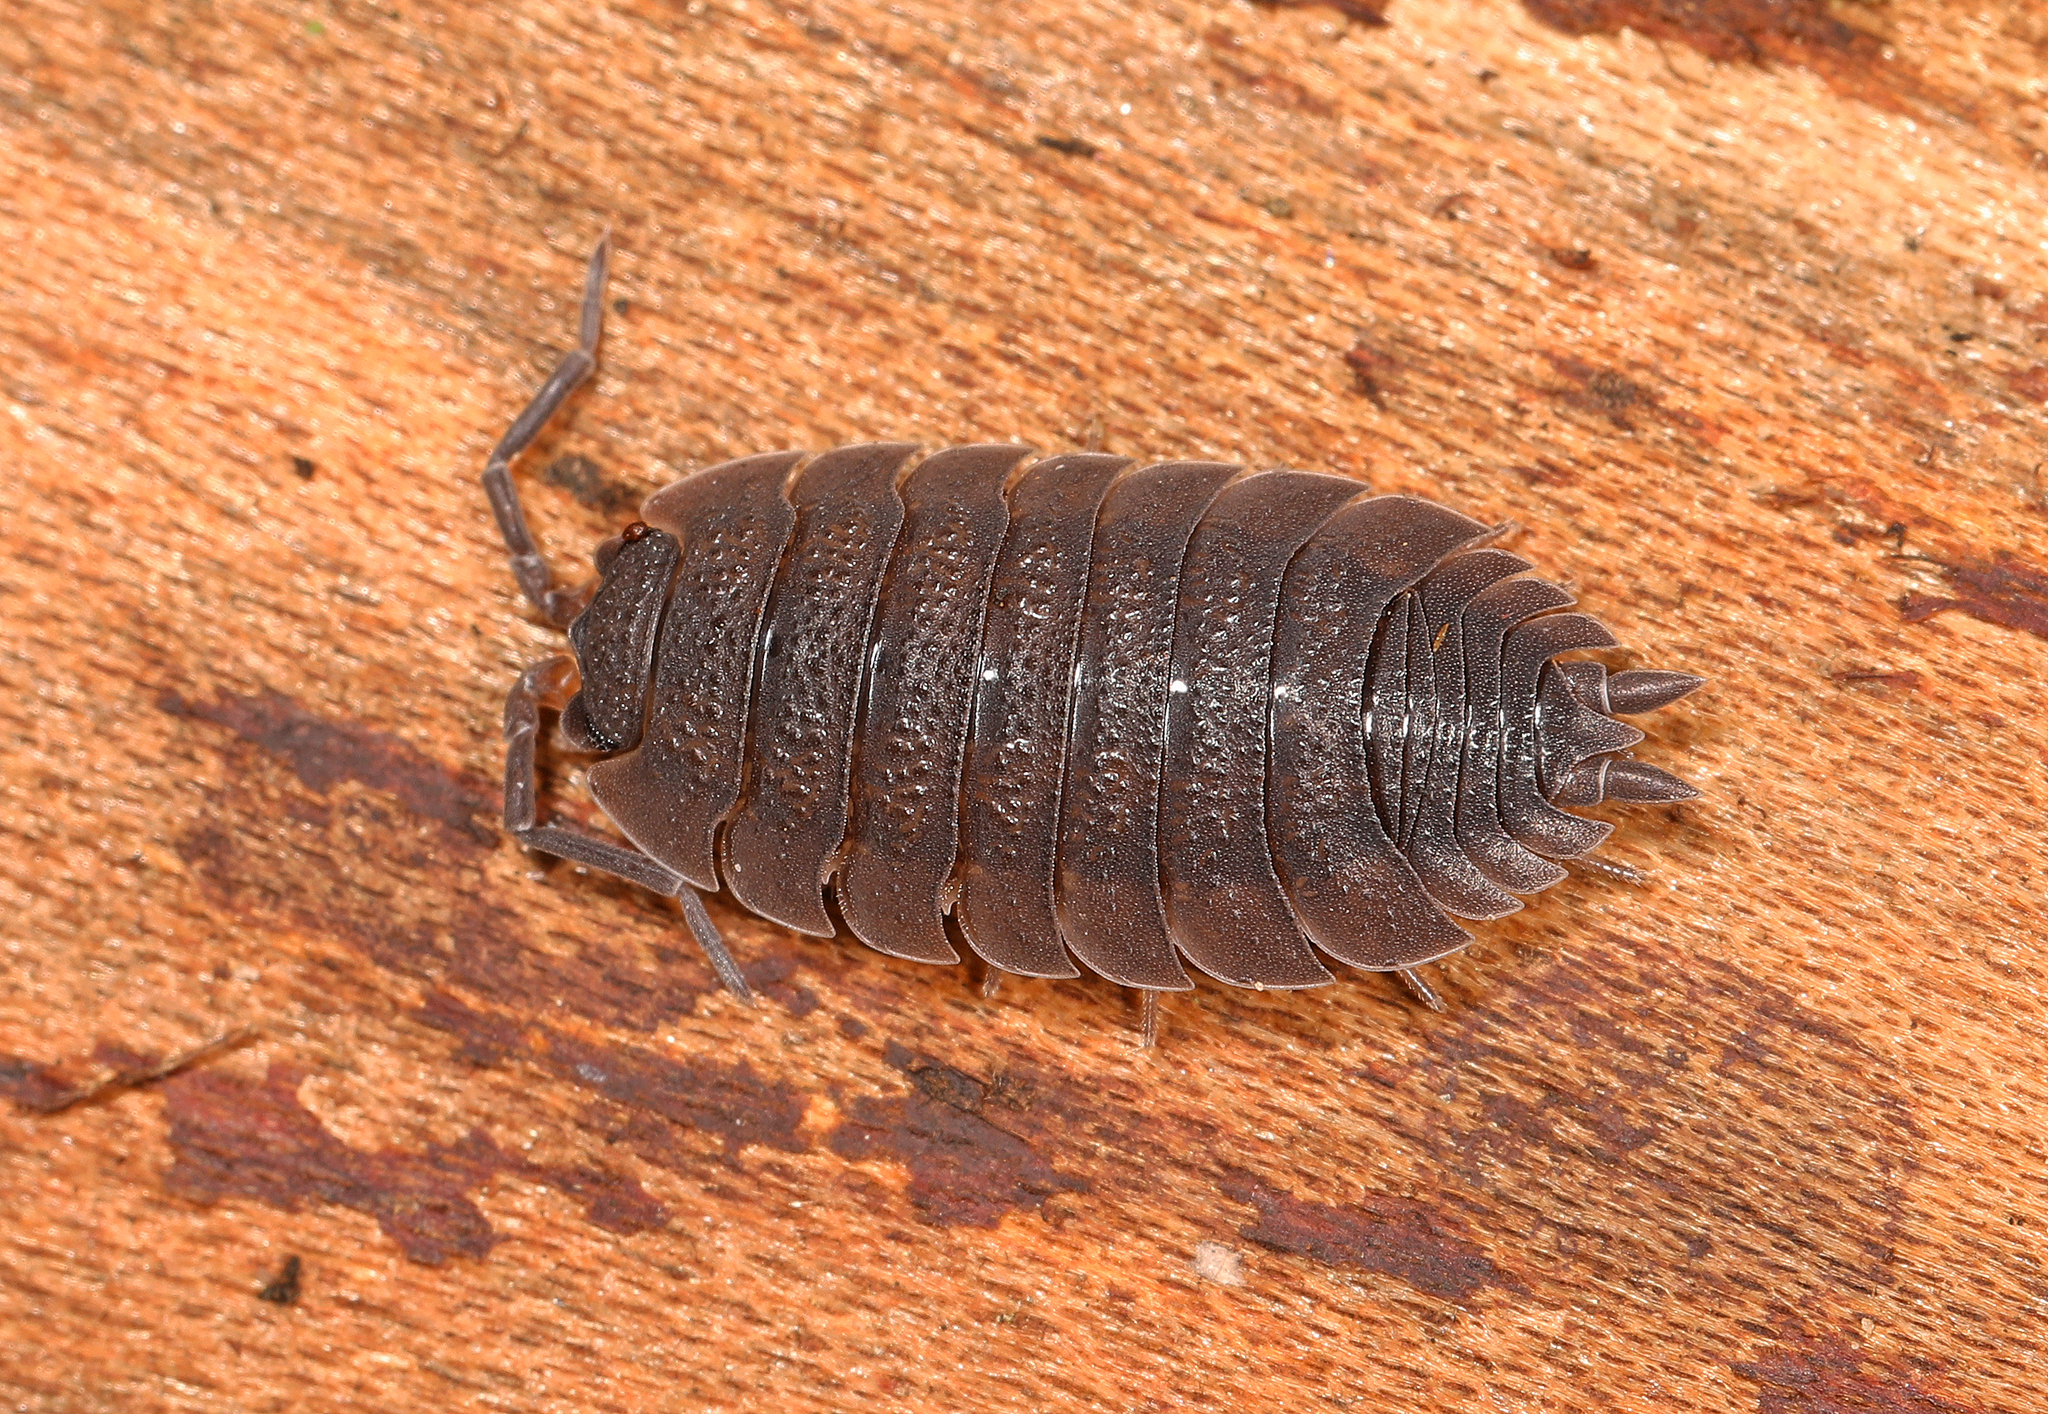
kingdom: Animalia
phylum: Arthropoda
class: Malacostraca
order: Isopoda
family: Porcellionidae
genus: Porcellio
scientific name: Porcellio scaber
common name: Common rough woodlouse
